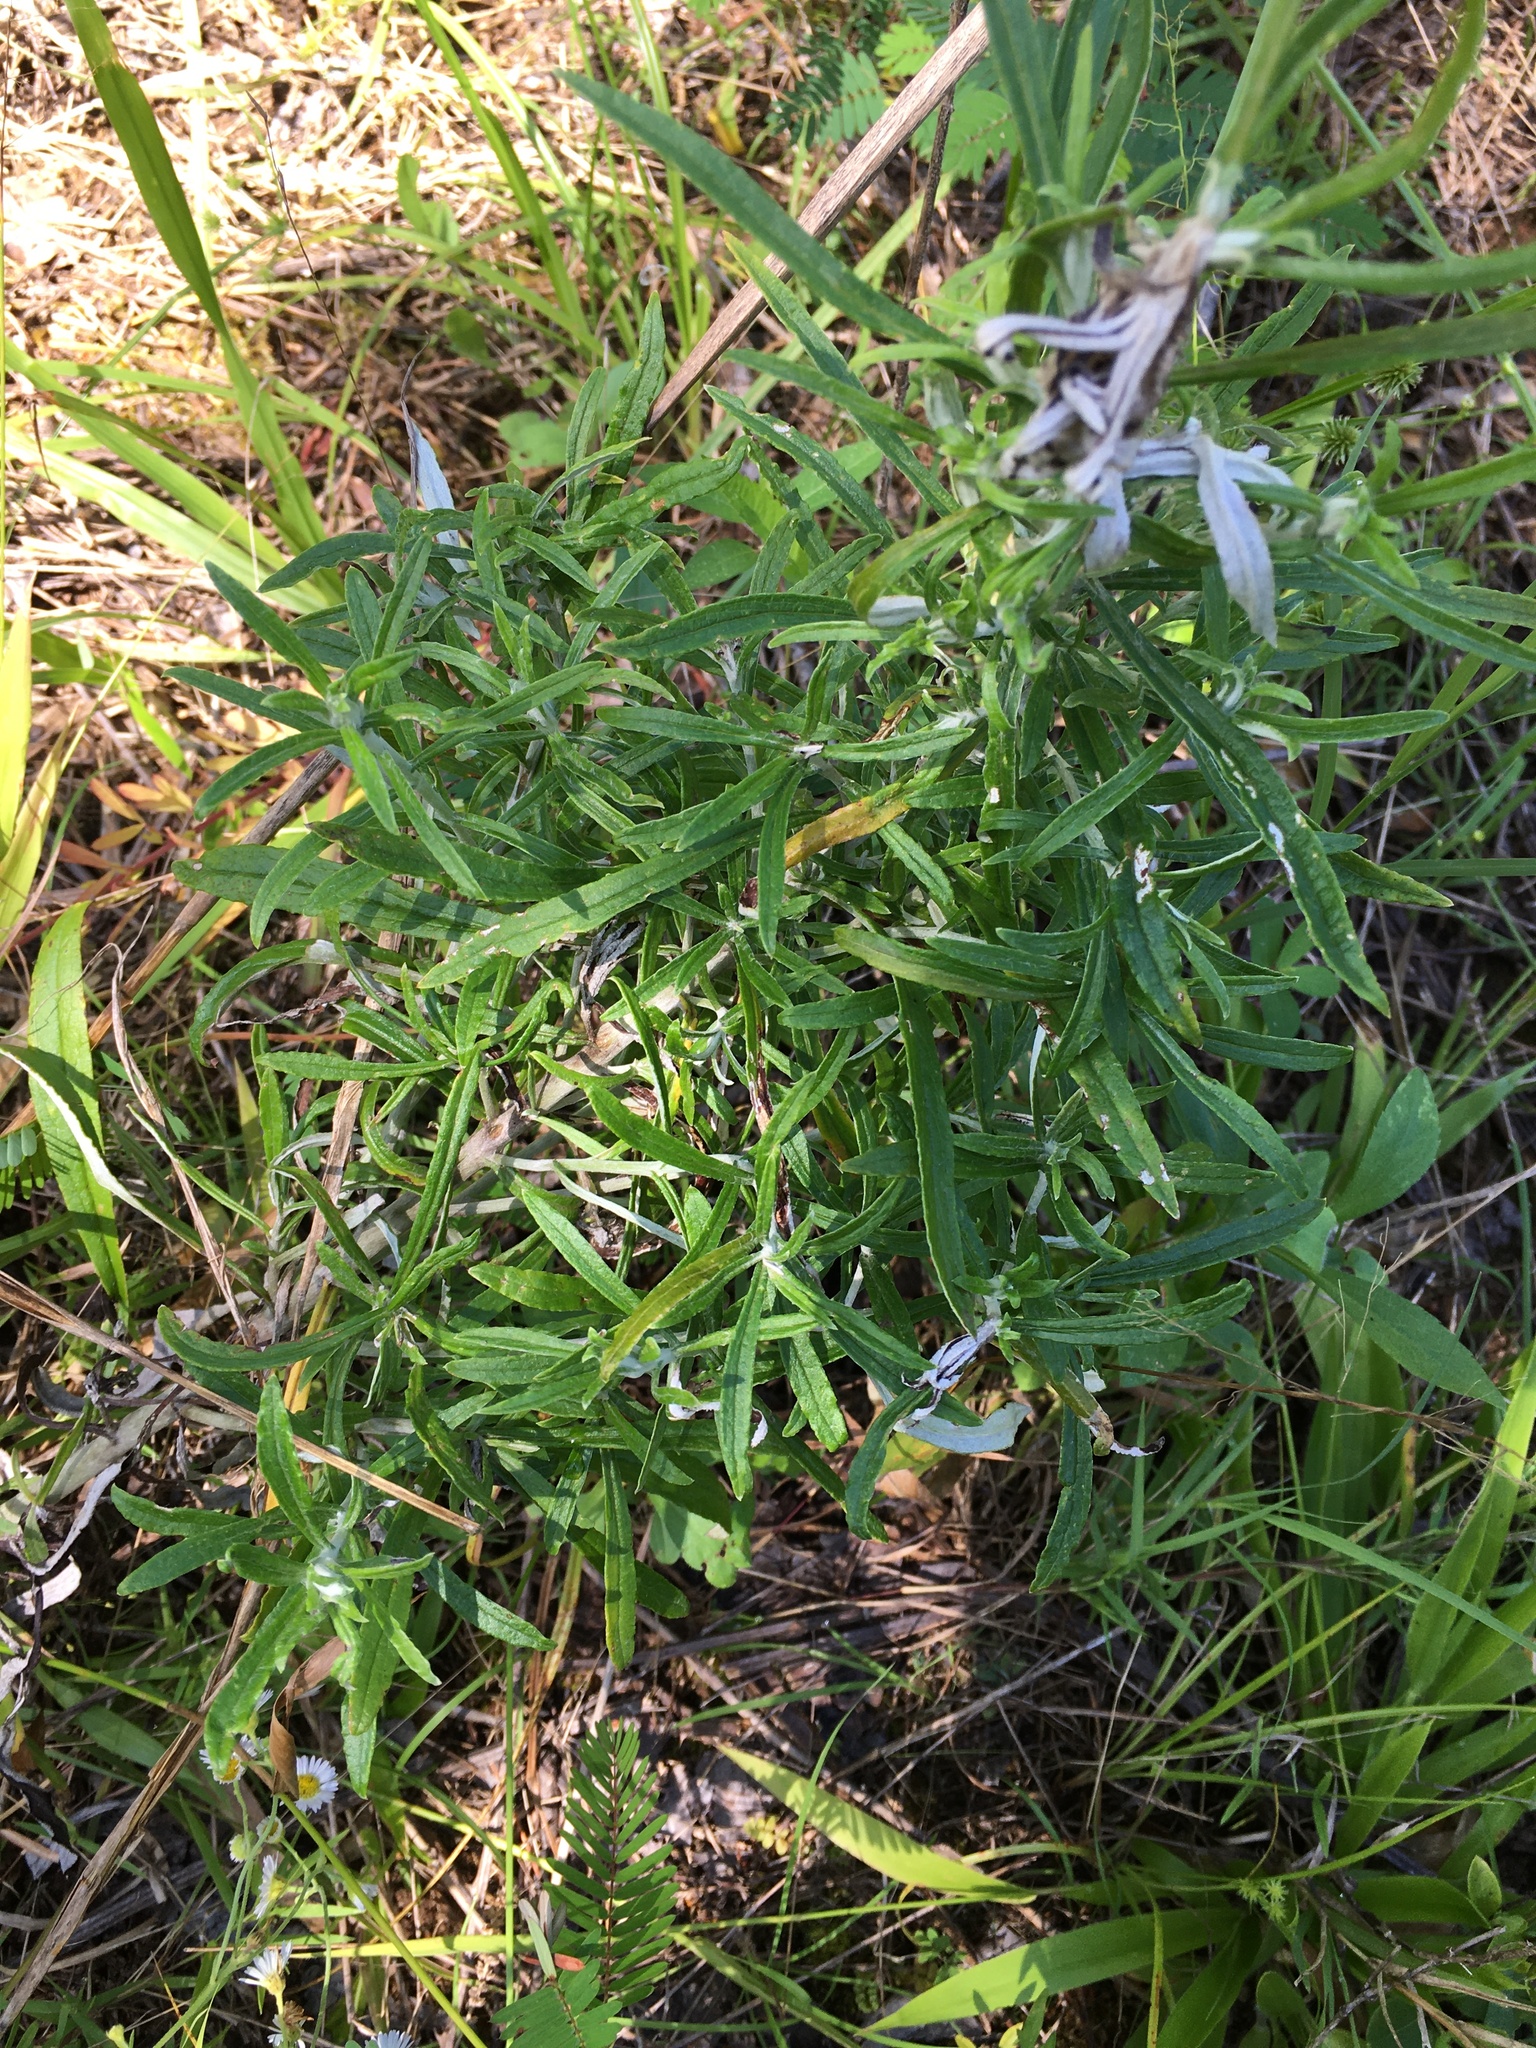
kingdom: Plantae
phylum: Tracheophyta
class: Magnoliopsida
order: Asterales
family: Asteraceae
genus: Pseudognaphalium
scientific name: Pseudognaphalium obtusifolium
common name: Eastern rabbit-tobacco
